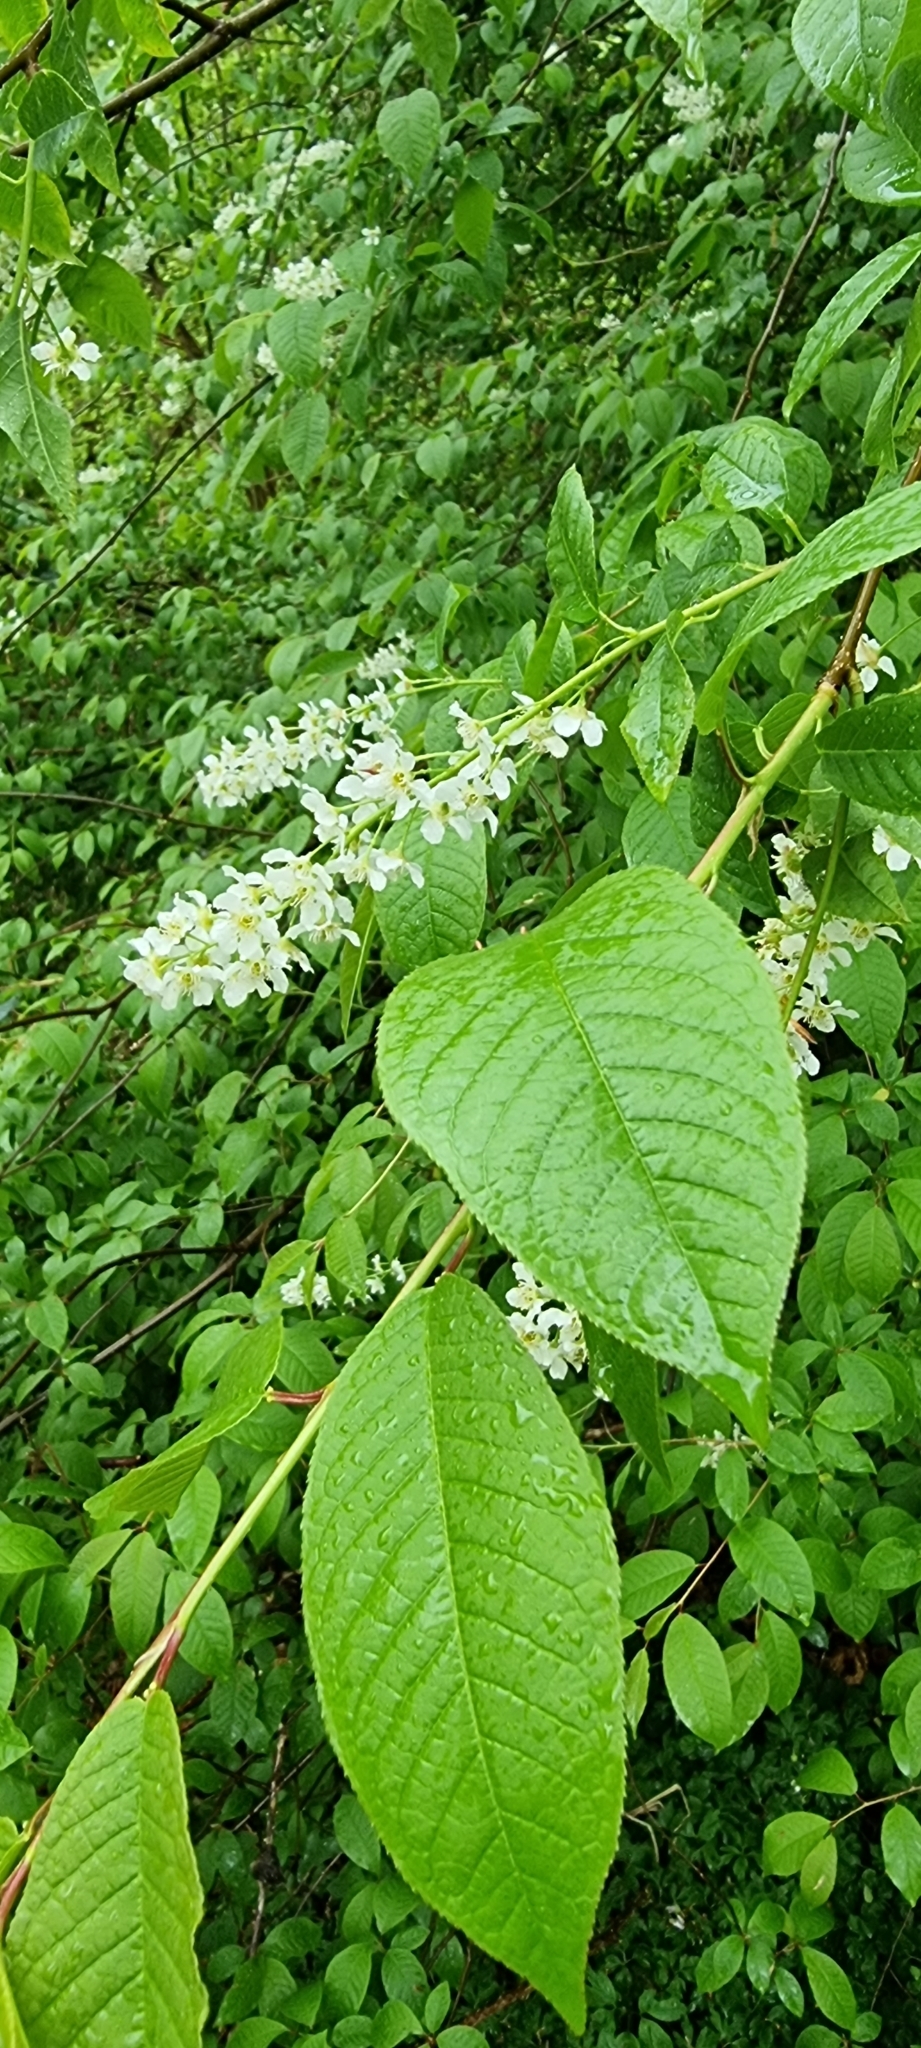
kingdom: Plantae
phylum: Tracheophyta
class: Magnoliopsida
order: Rosales
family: Rosaceae
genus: Prunus
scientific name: Prunus padus
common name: Bird cherry
